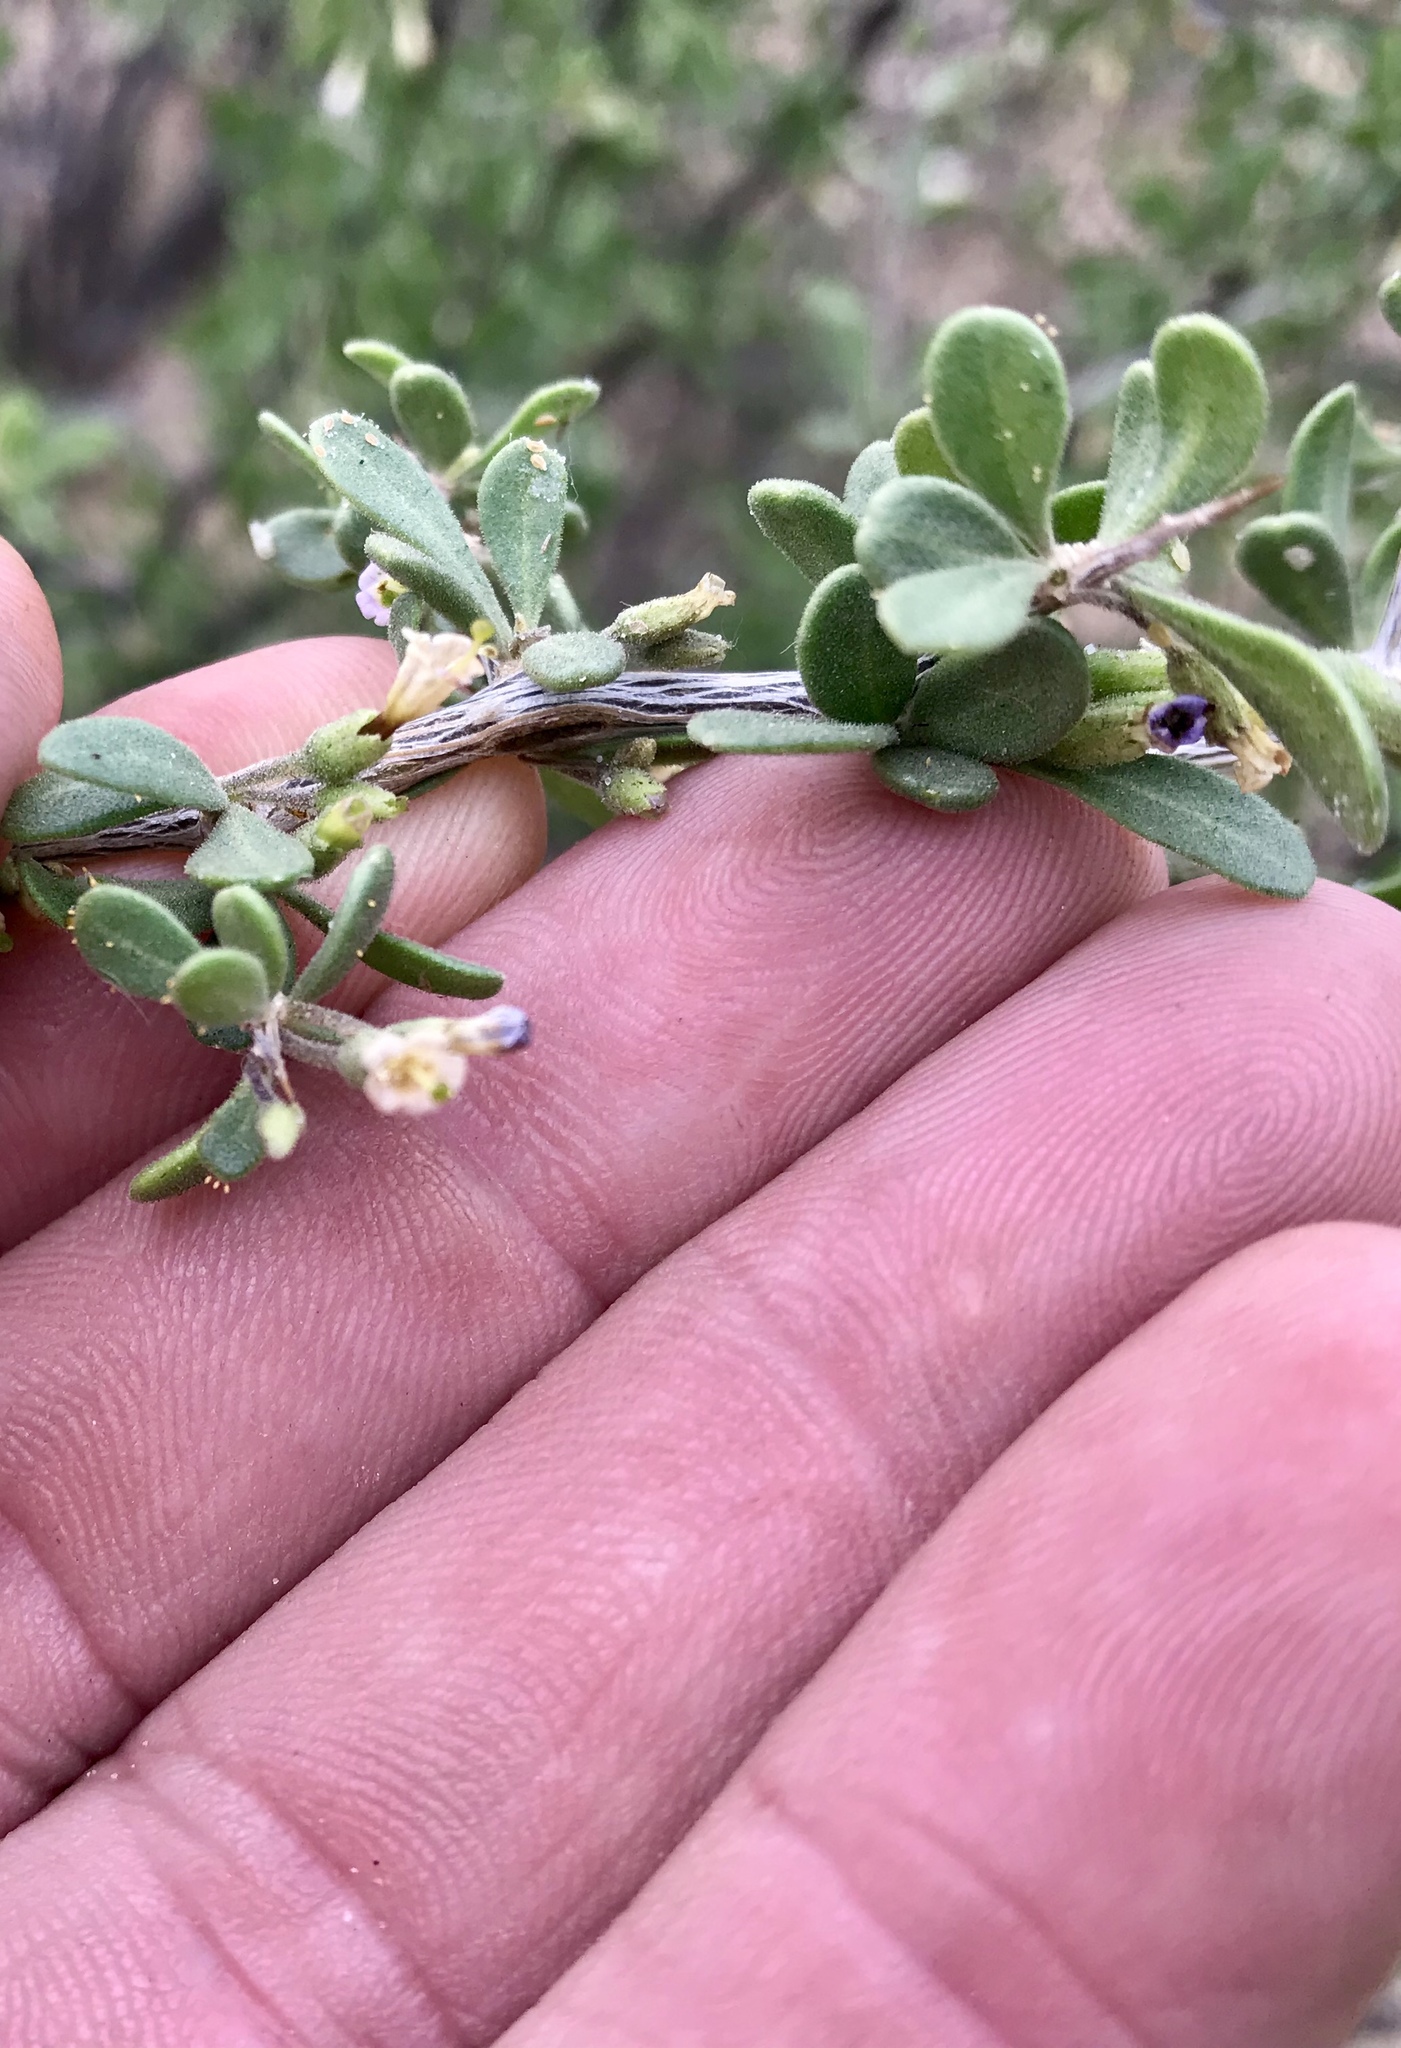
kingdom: Plantae
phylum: Tracheophyta
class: Magnoliopsida
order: Solanales
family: Solanaceae
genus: Lycium
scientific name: Lycium exsertum
